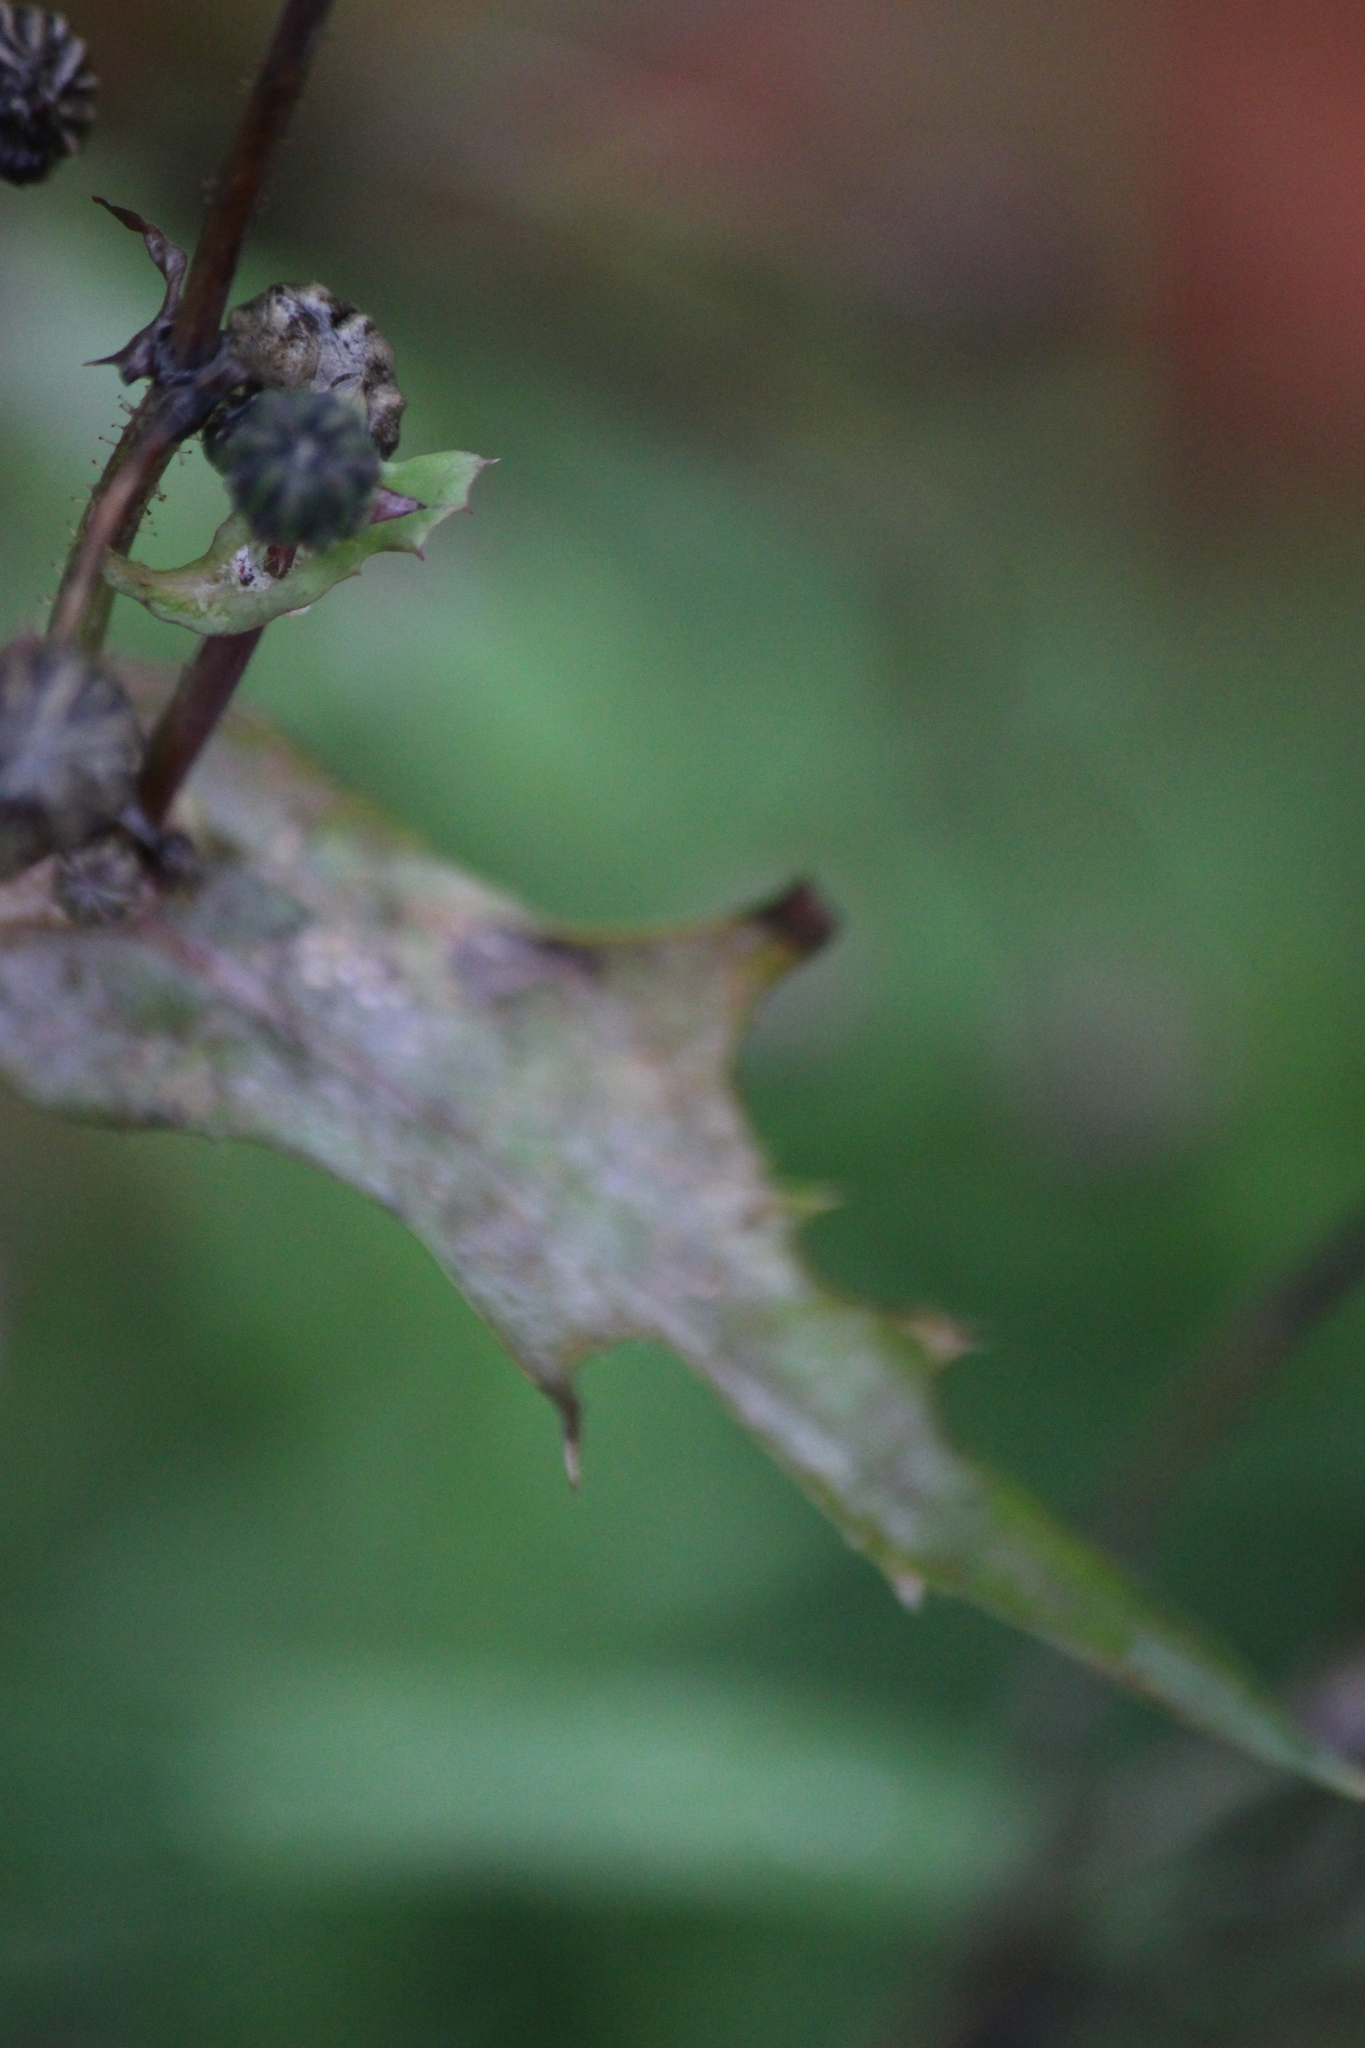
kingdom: Plantae
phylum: Tracheophyta
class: Magnoliopsida
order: Asterales
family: Asteraceae
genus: Sonchus
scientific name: Sonchus oleraceus
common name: Common sowthistle
